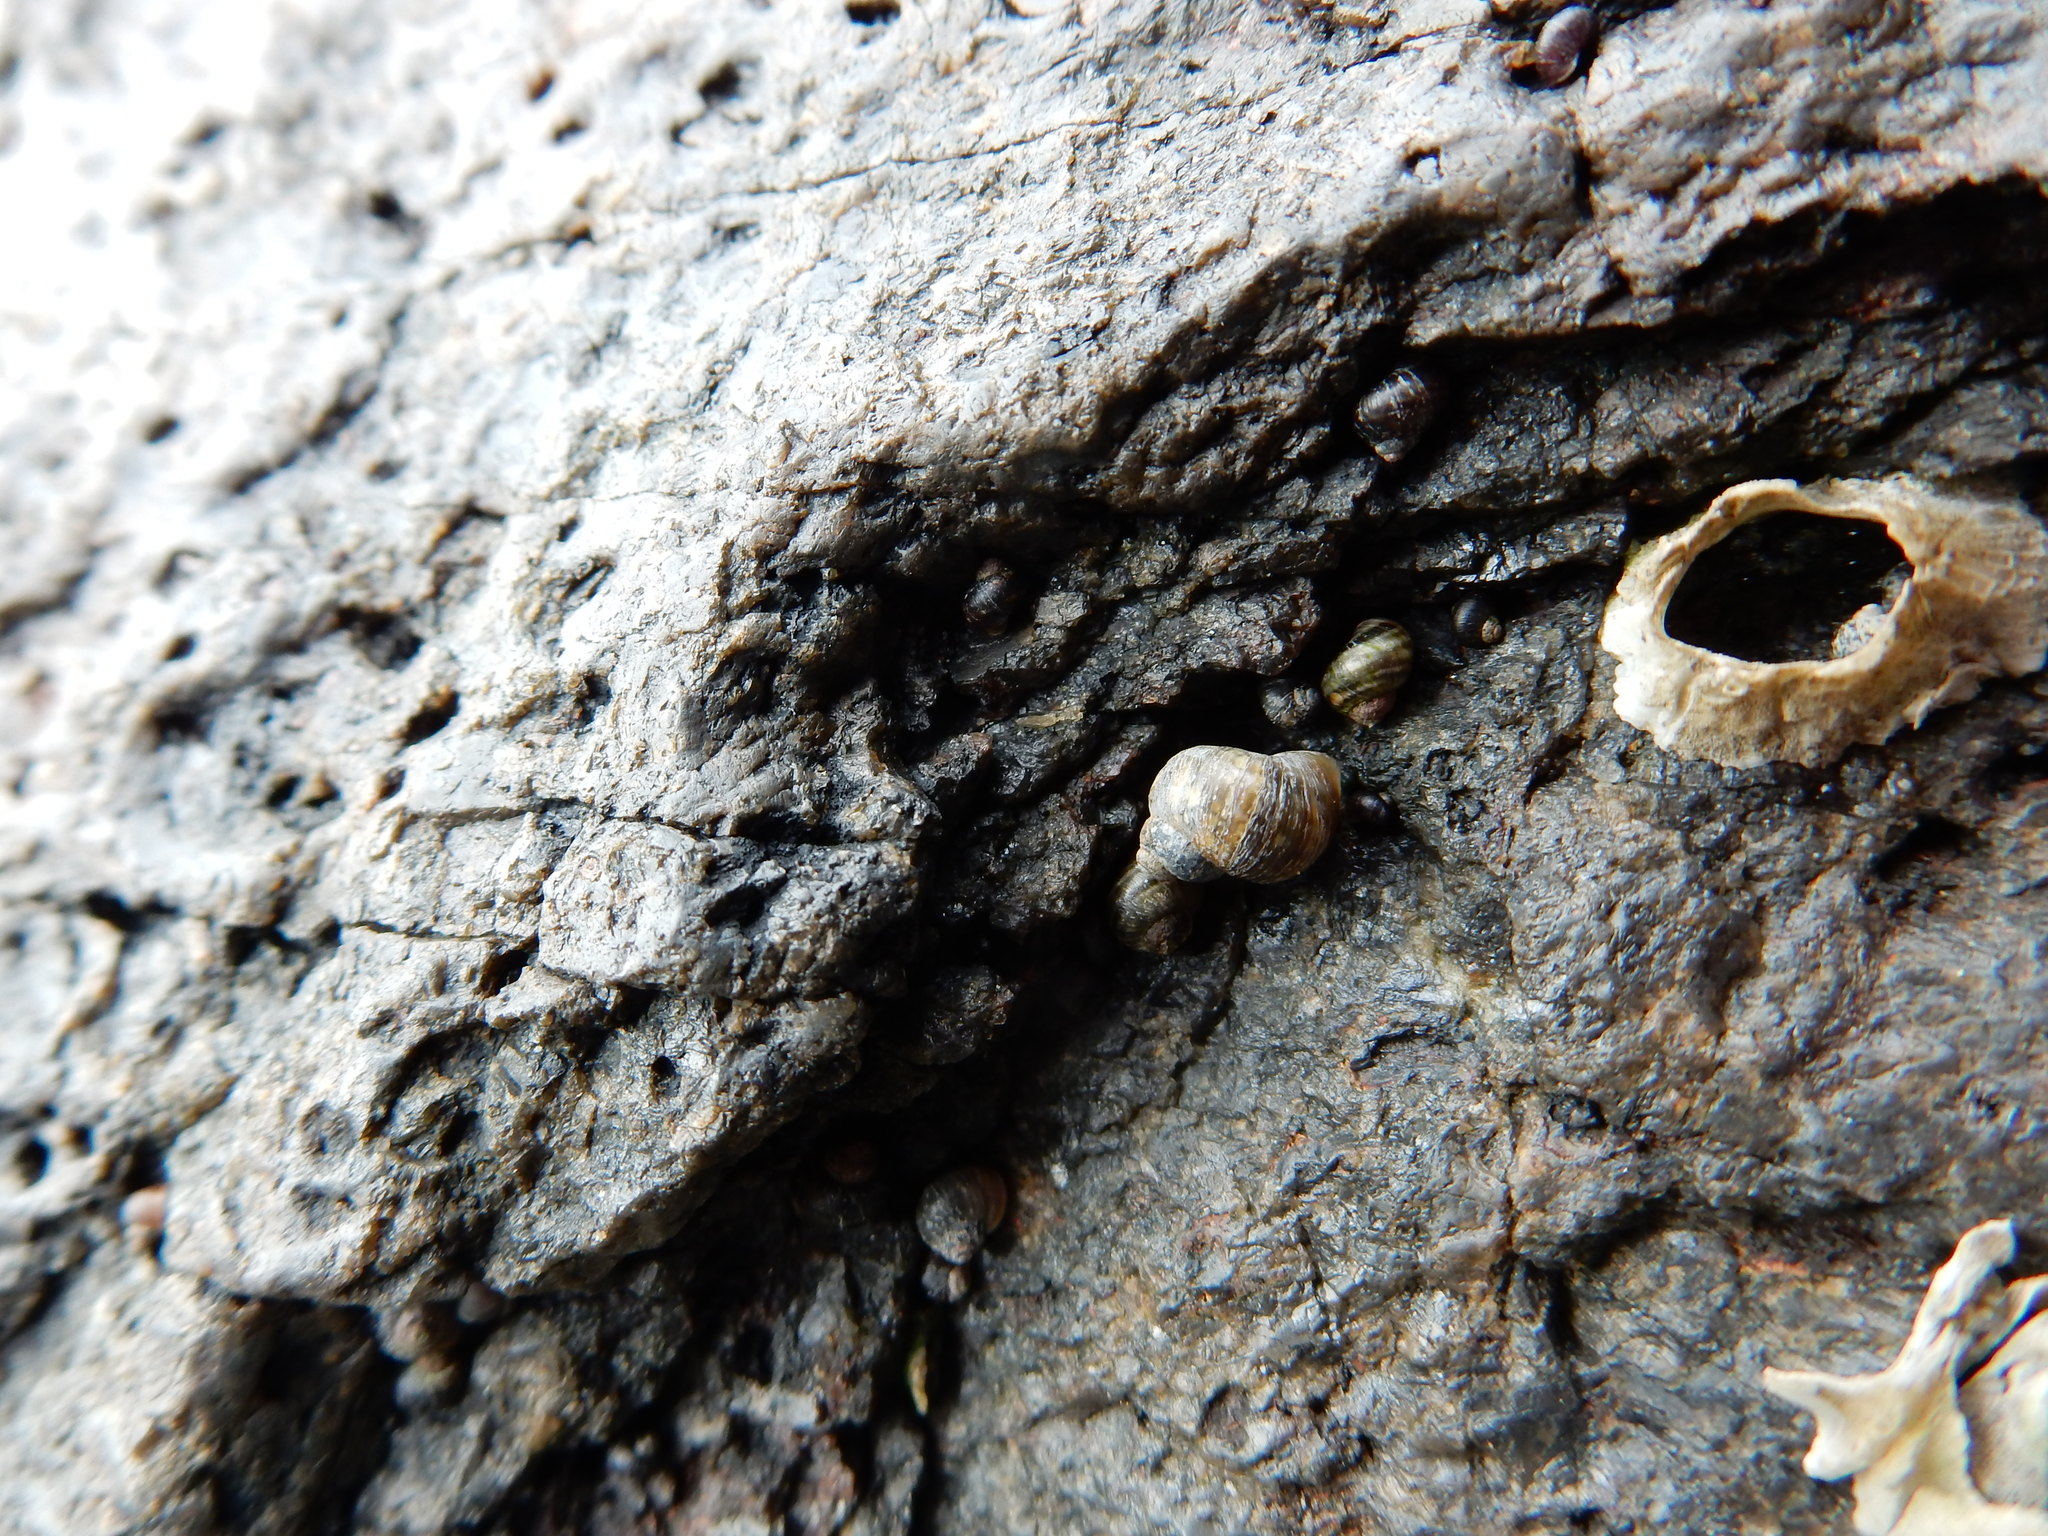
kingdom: Animalia
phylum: Mollusca
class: Gastropoda
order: Littorinimorpha
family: Littorinidae
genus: Littorina
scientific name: Littorina saxatilis
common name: Black-lined periwinkle
